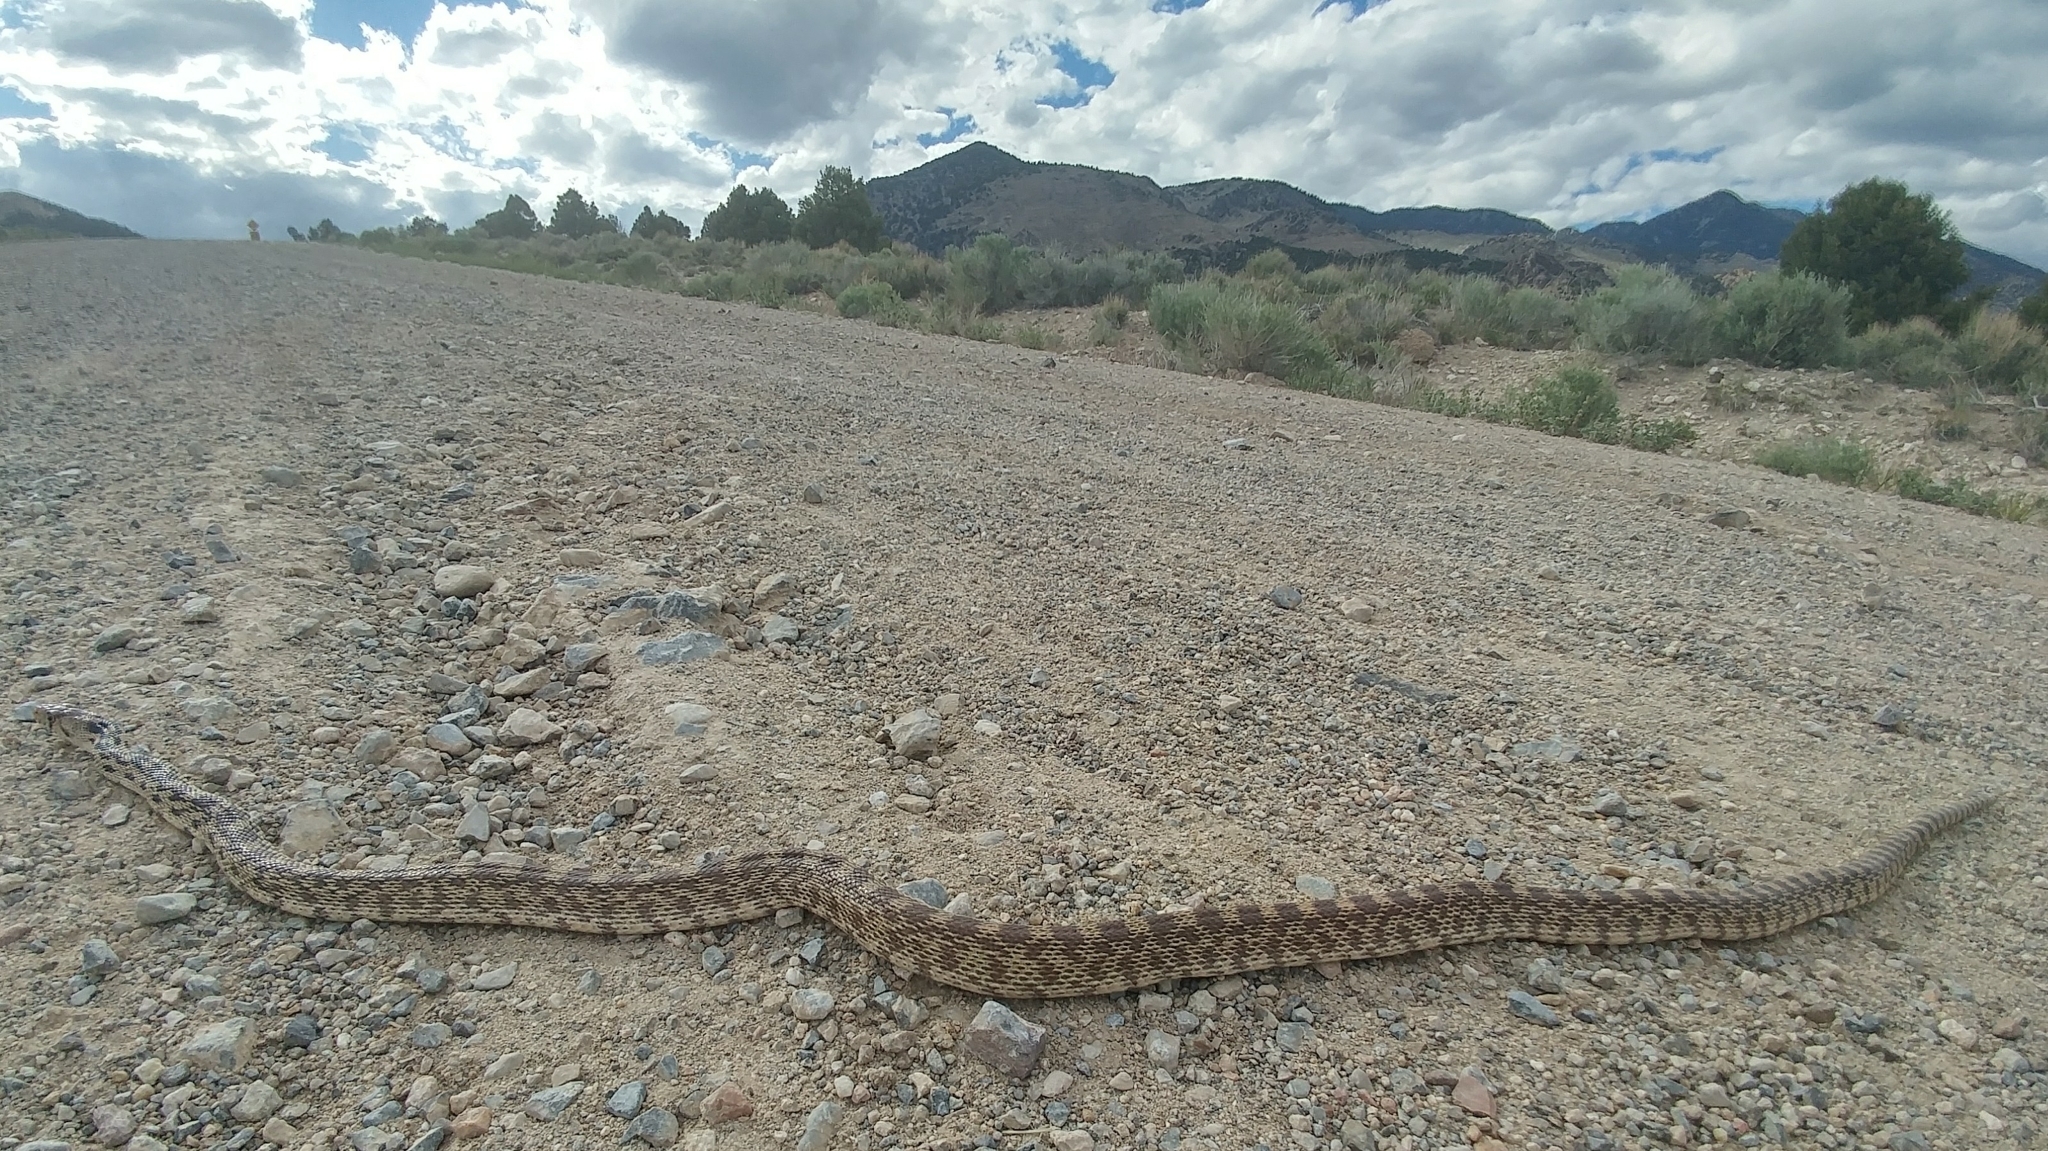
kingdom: Animalia
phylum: Chordata
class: Squamata
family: Colubridae
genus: Pituophis
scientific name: Pituophis catenifer
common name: Gopher snake
